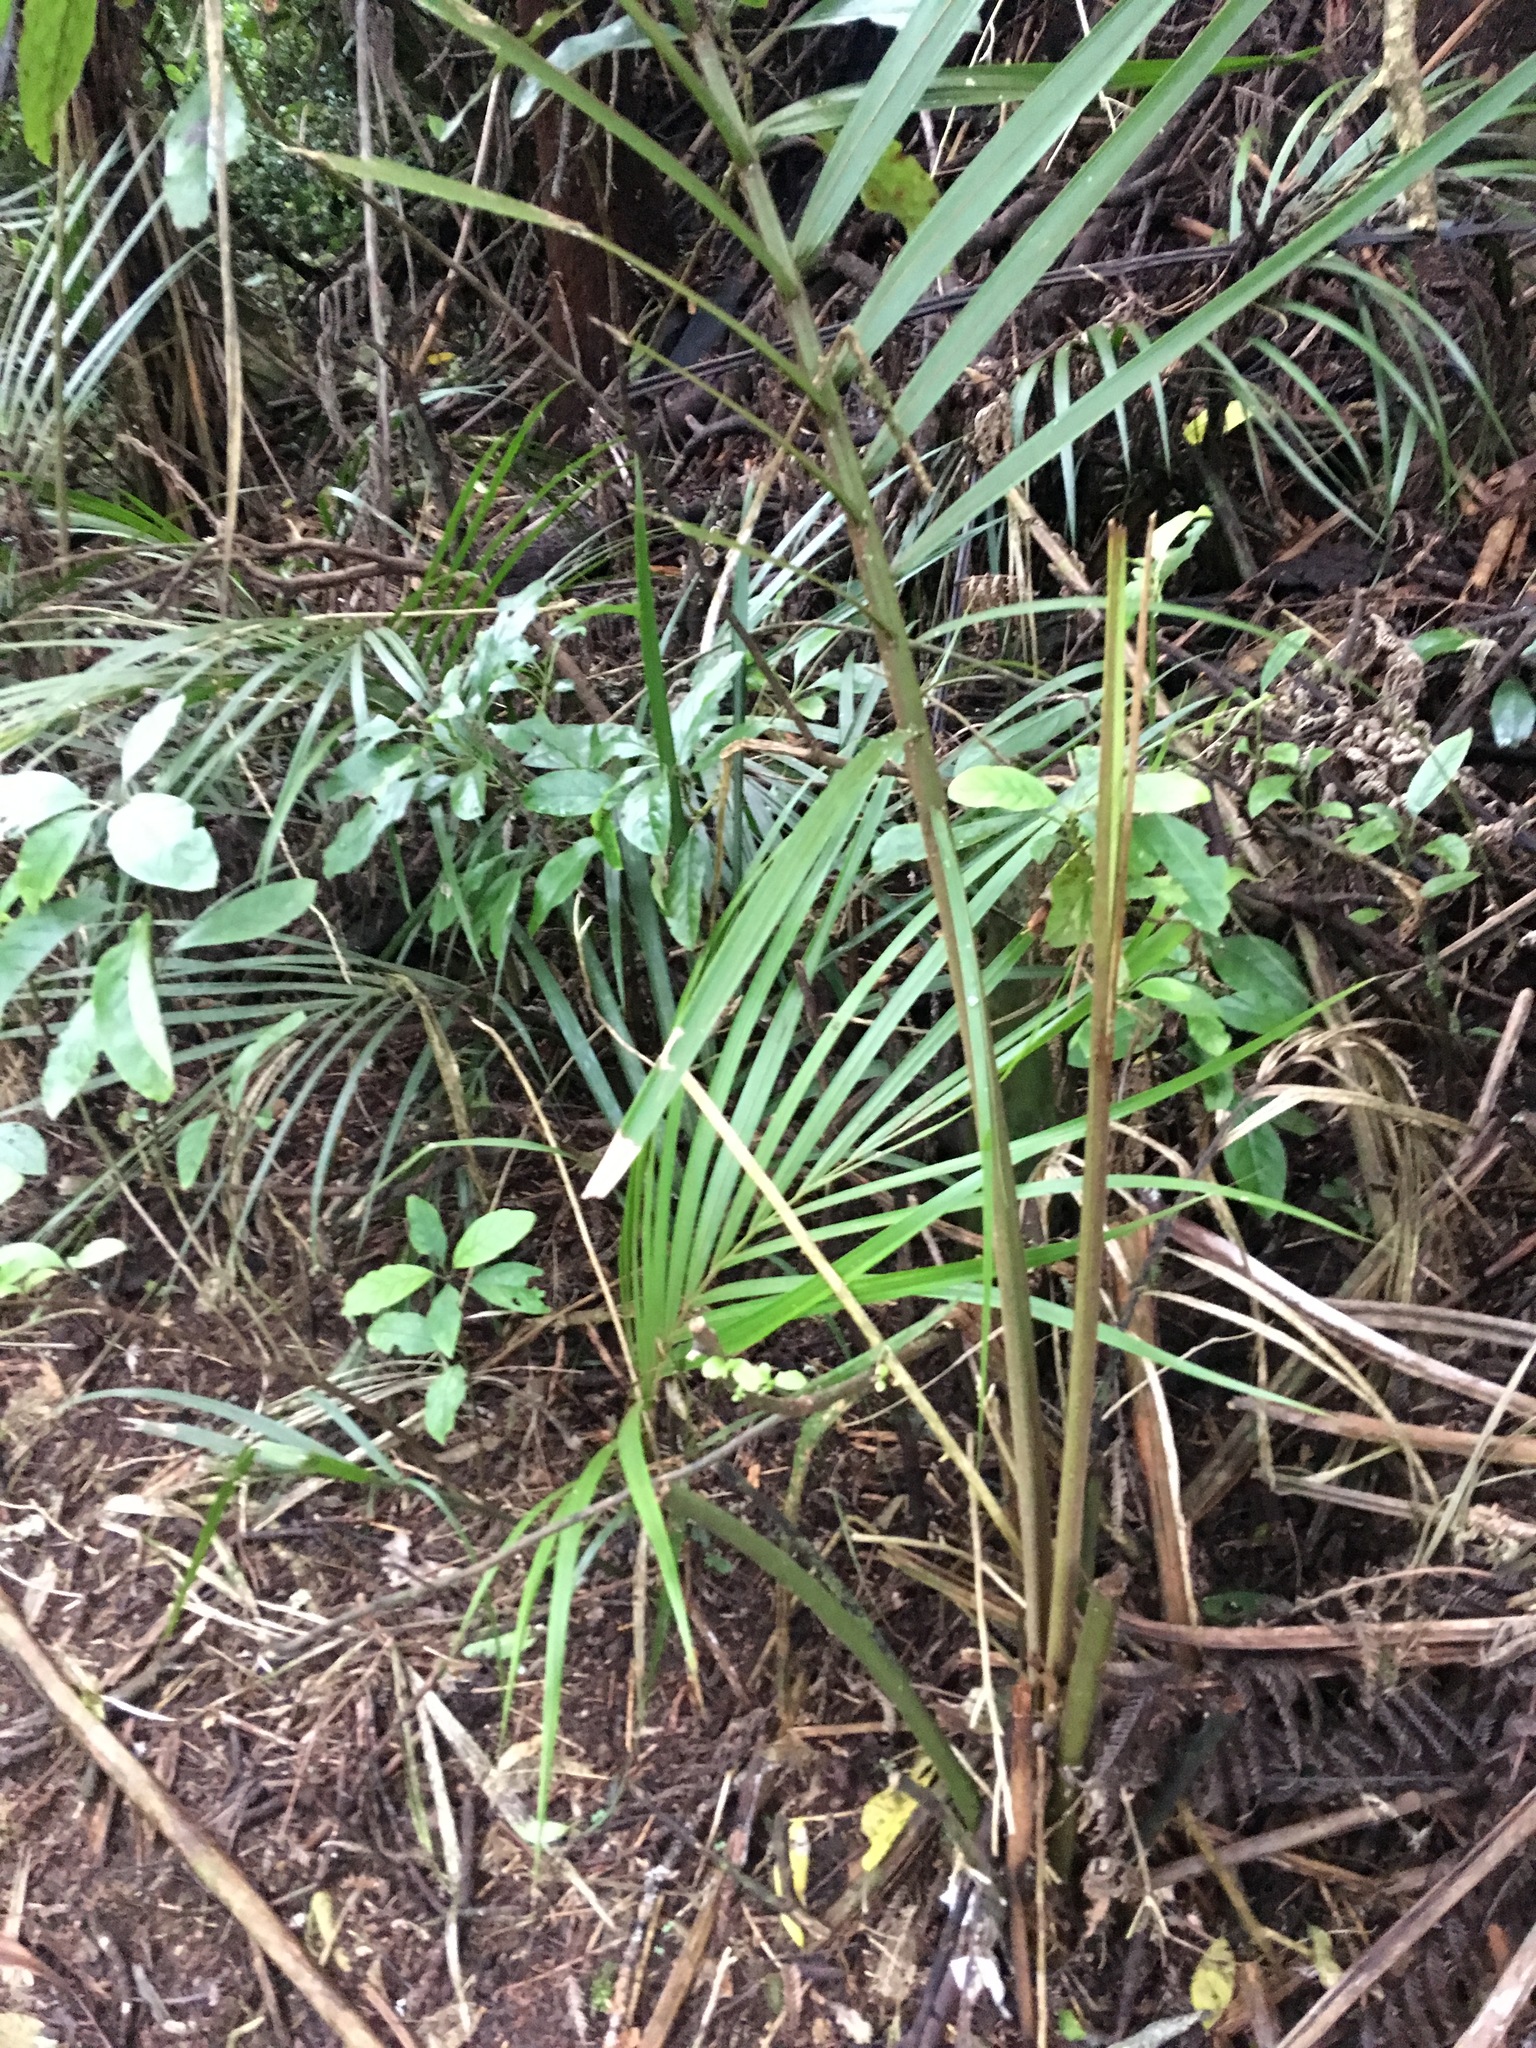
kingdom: Plantae
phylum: Tracheophyta
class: Liliopsida
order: Arecales
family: Arecaceae
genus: Rhopalostylis
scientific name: Rhopalostylis sapida
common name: Feather-duster palm
